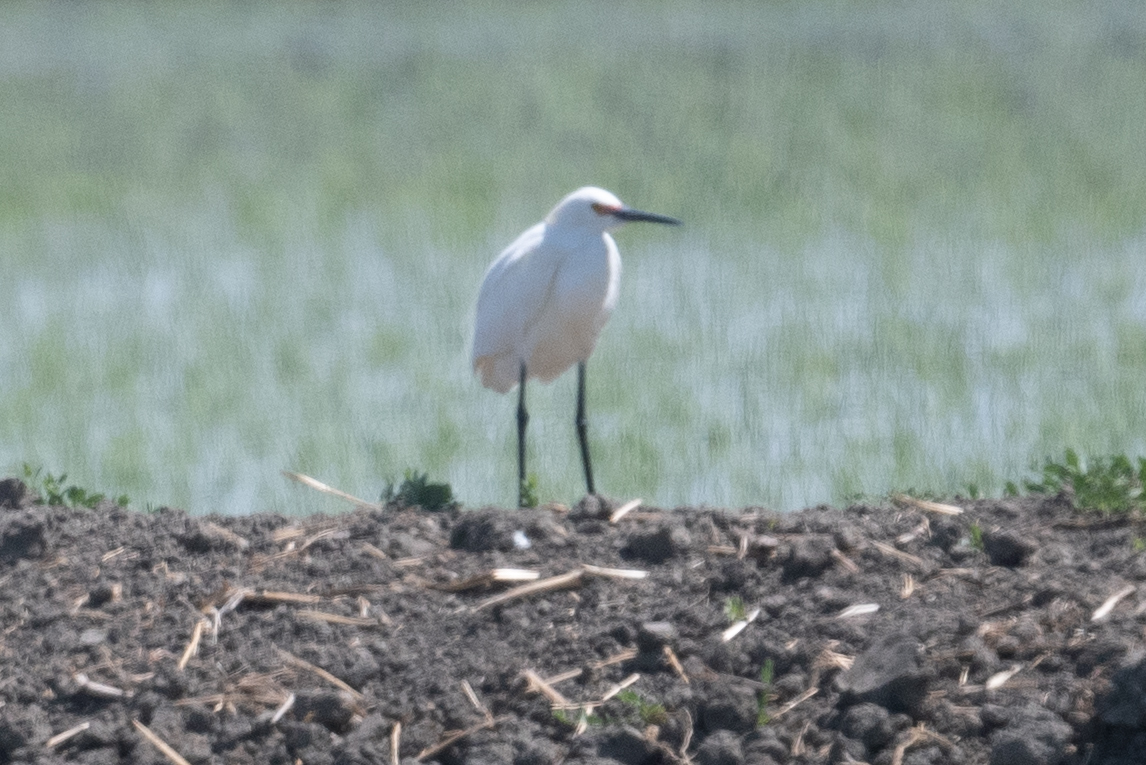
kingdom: Animalia
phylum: Chordata
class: Aves
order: Pelecaniformes
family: Ardeidae
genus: Egretta
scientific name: Egretta thula
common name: Snowy egret
